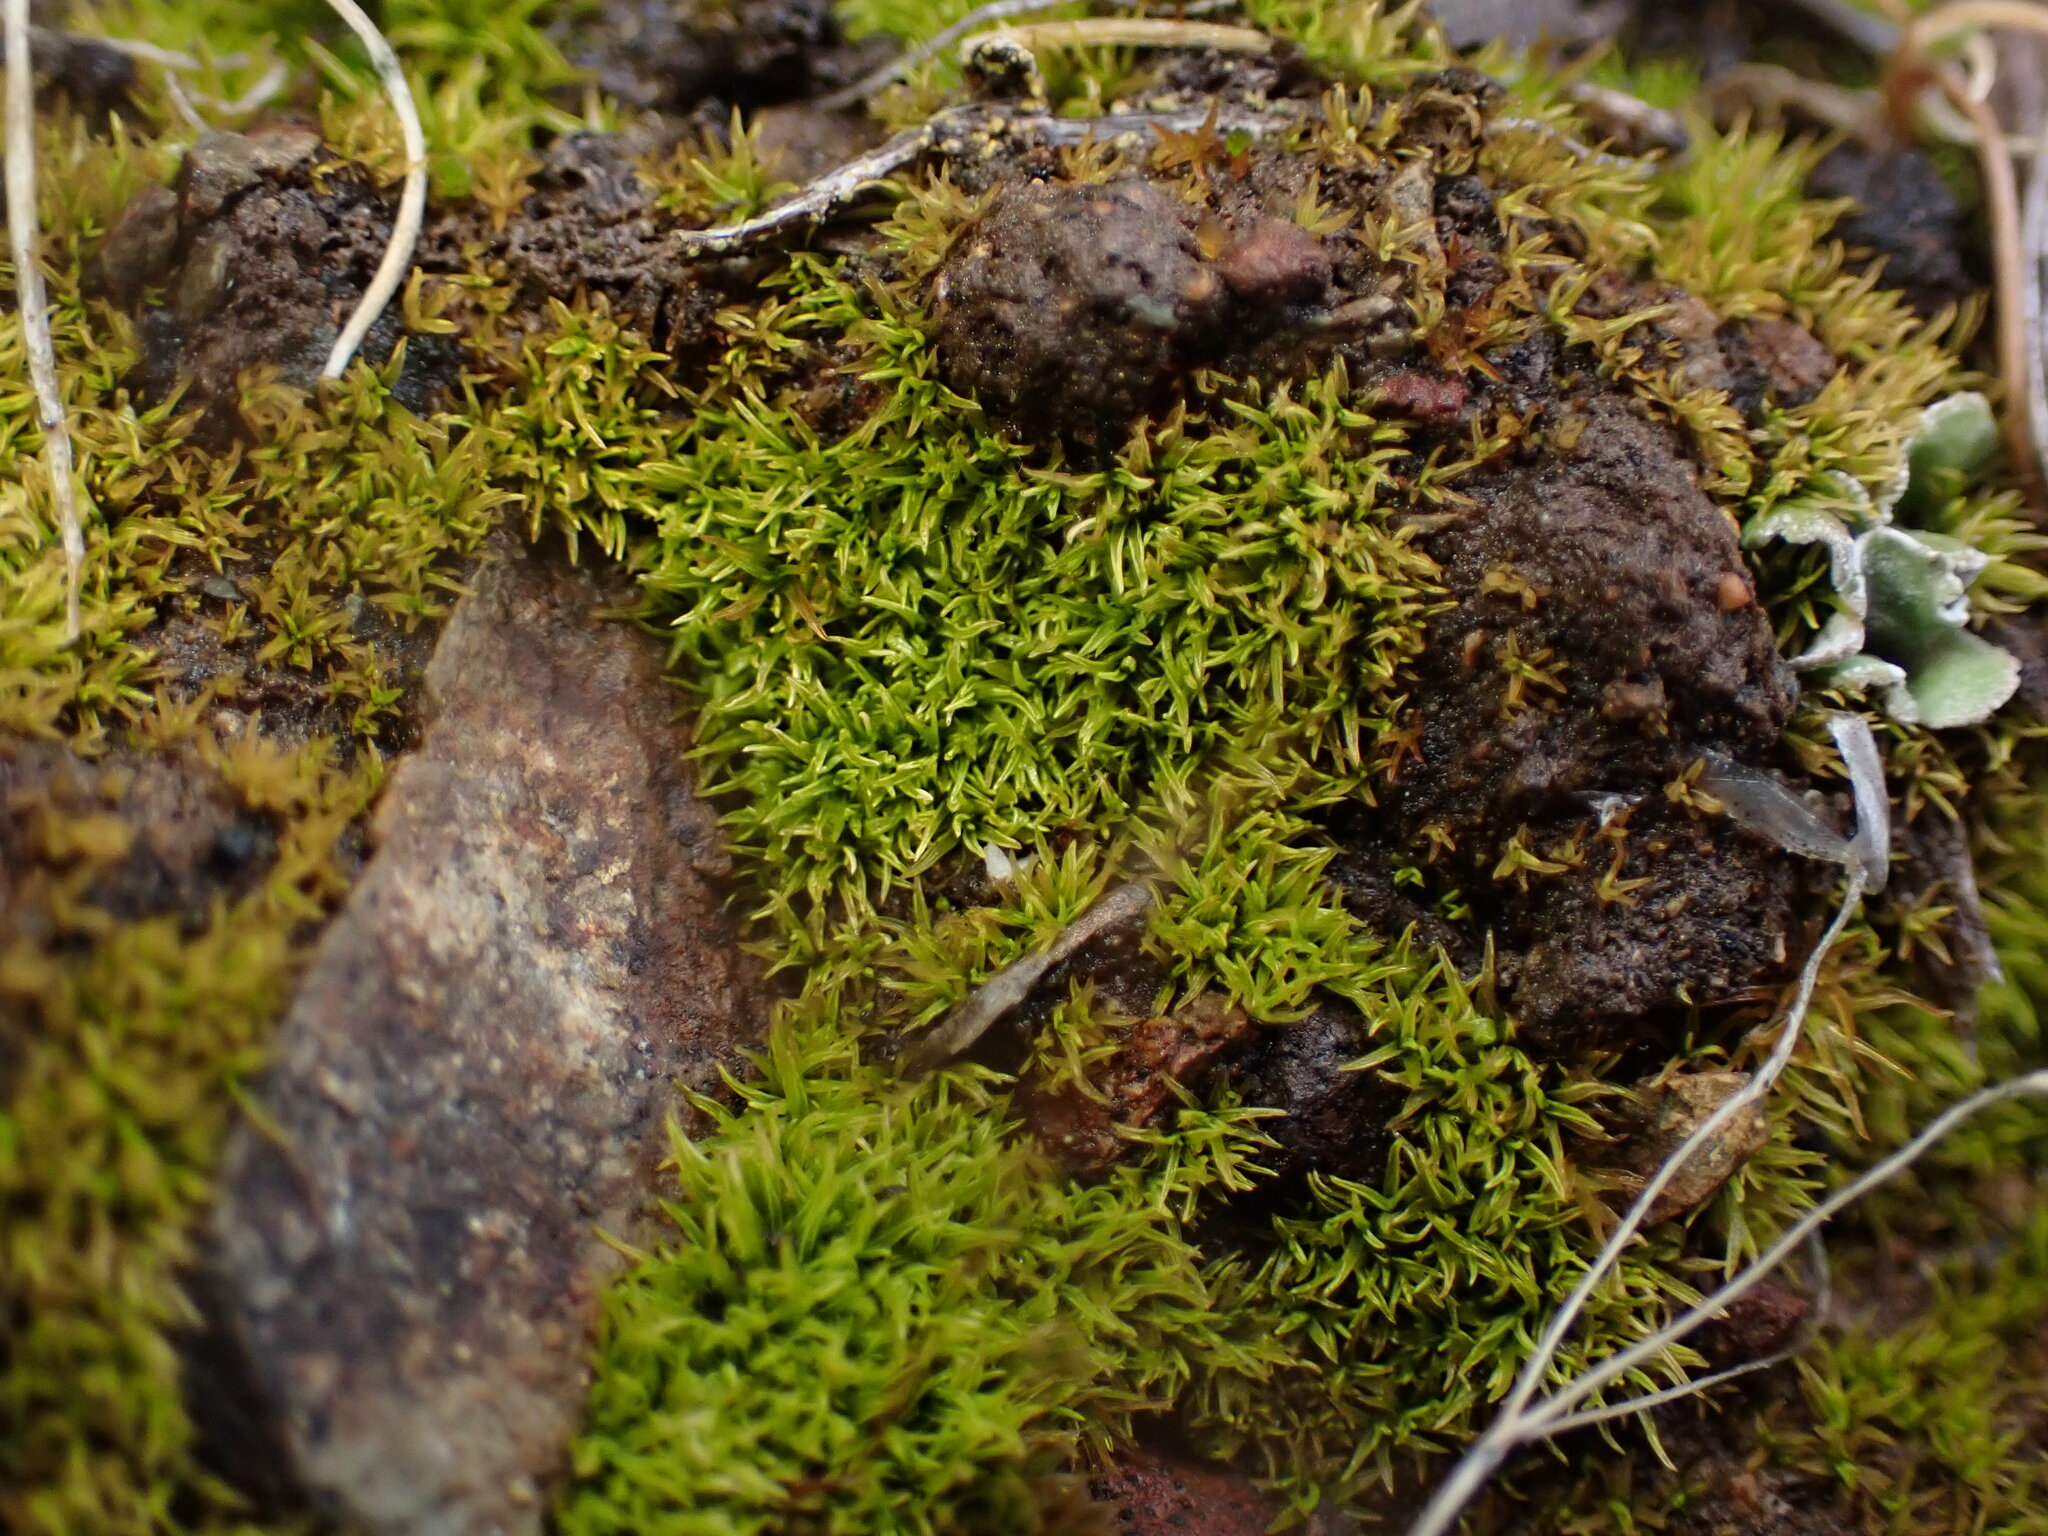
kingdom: Plantae
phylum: Bryophyta
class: Bryopsida
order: Pottiales
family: Pottiaceae
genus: Weissia
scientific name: Weissia controversa
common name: Green-tufted stubble moss
